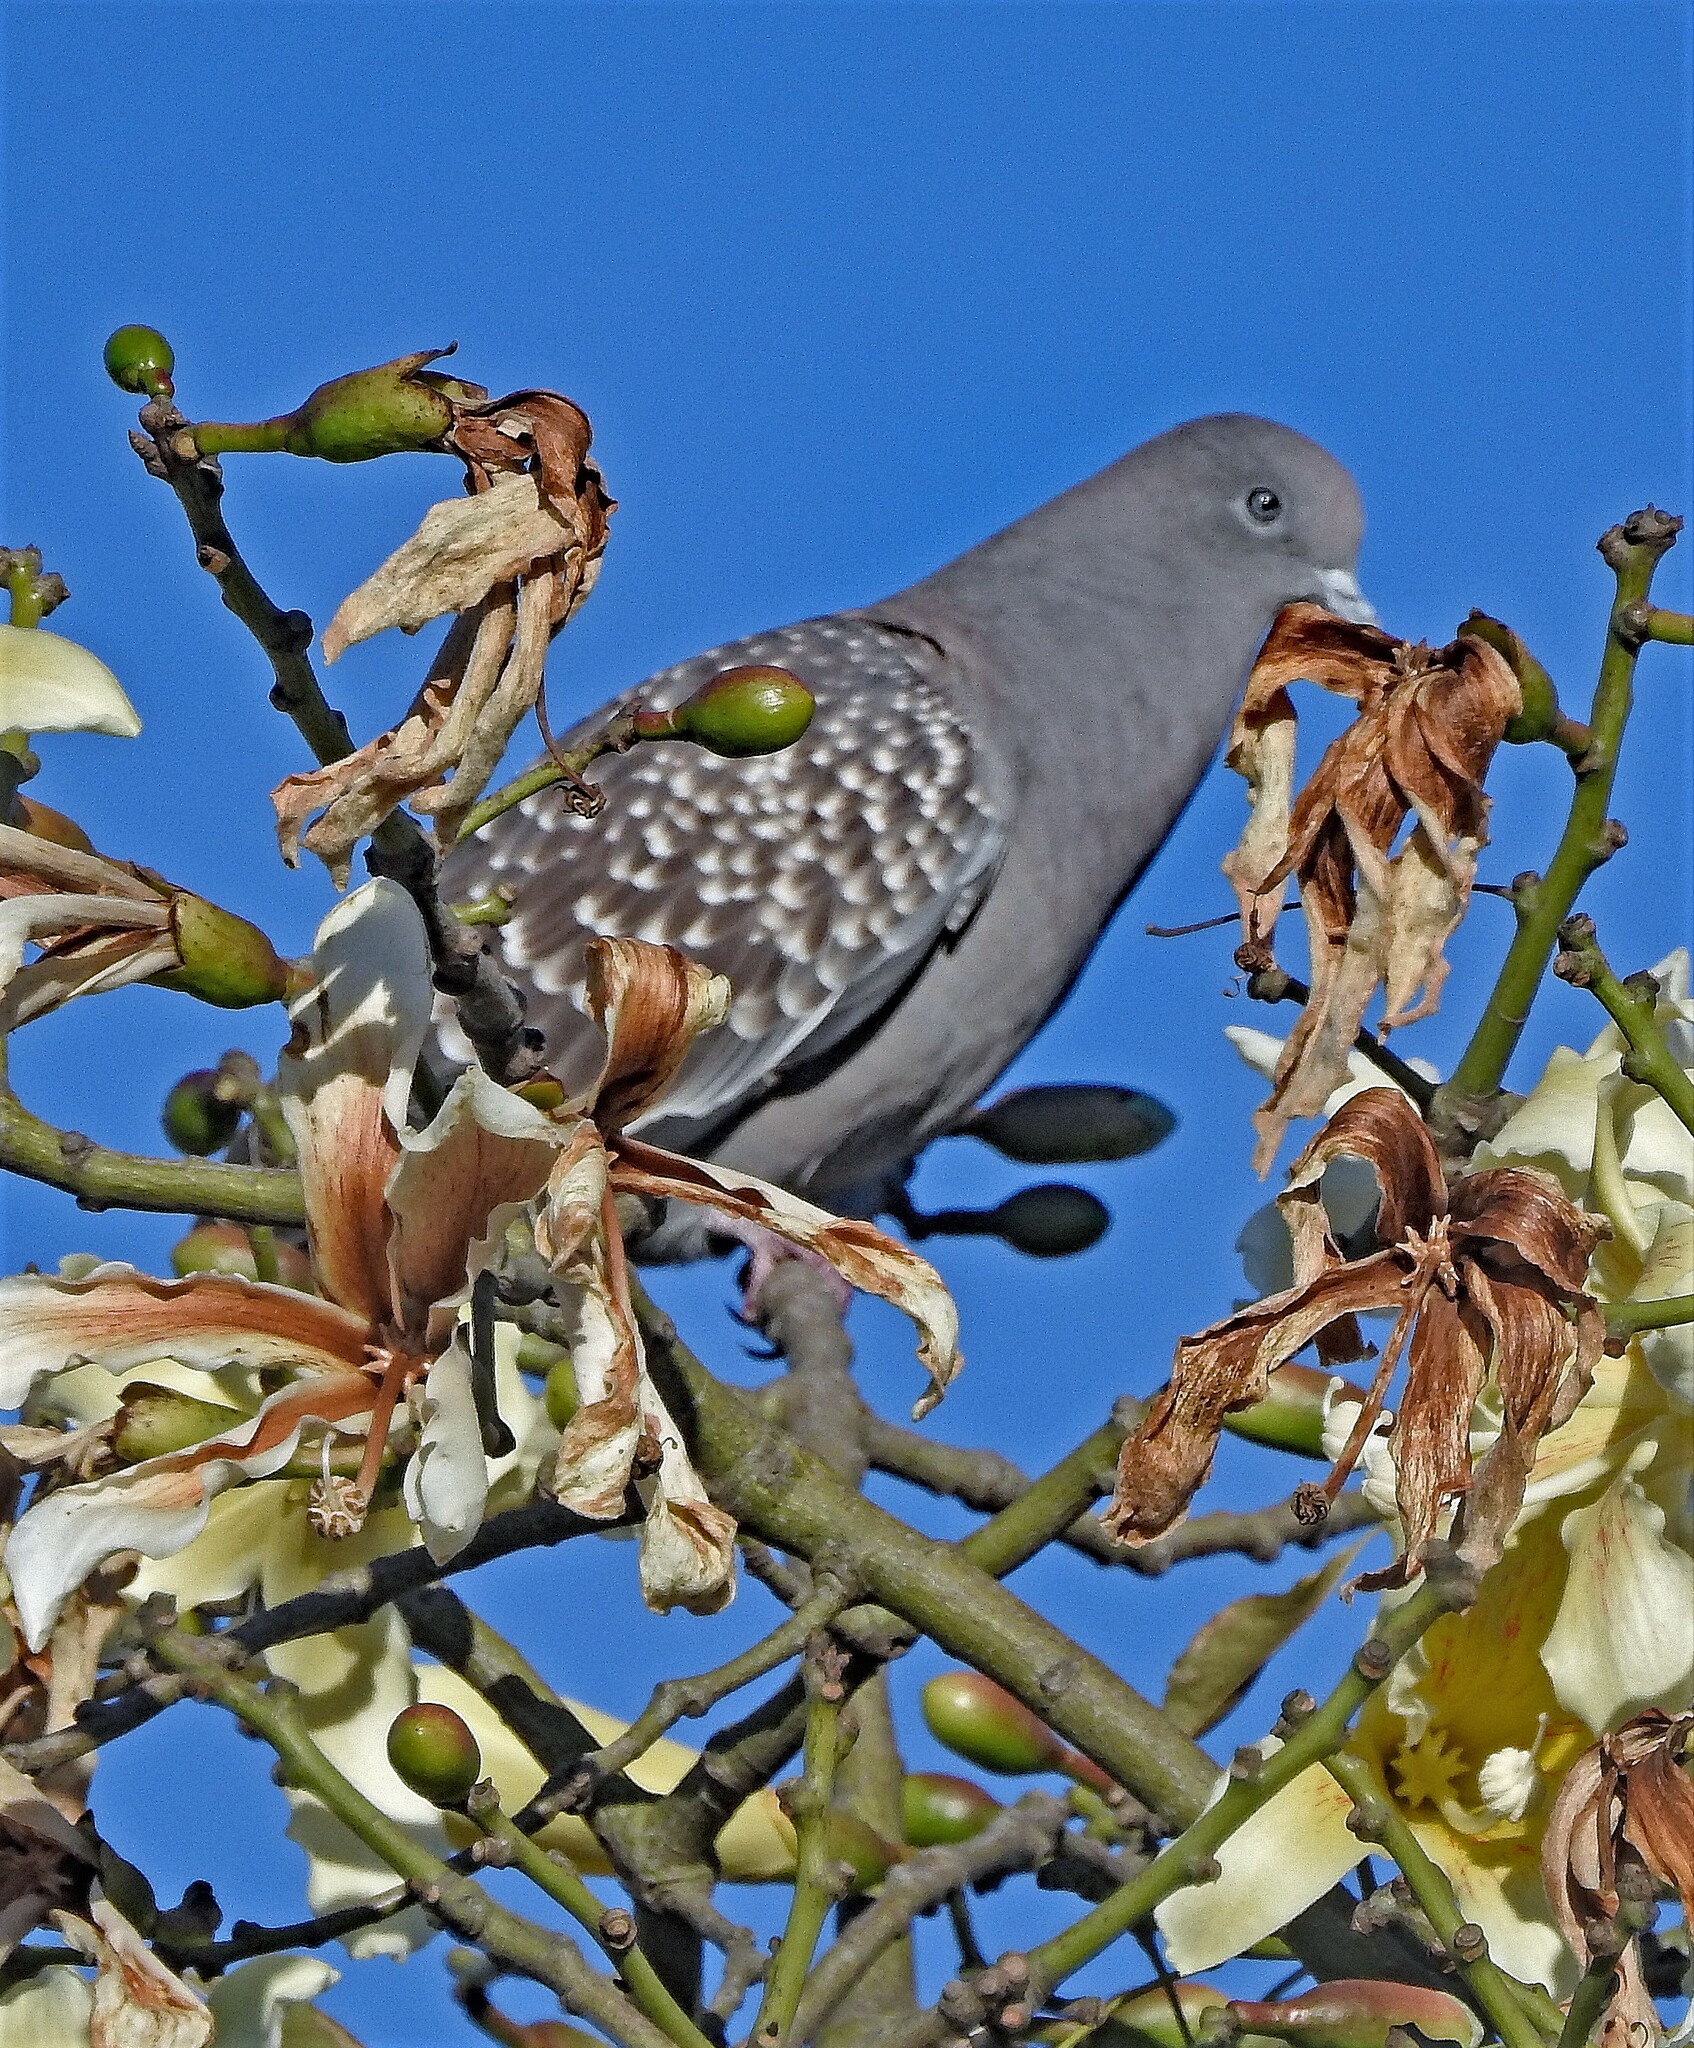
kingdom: Animalia
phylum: Chordata
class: Aves
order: Columbiformes
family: Columbidae
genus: Patagioenas
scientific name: Patagioenas maculosa
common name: Spot-winged pigeon
